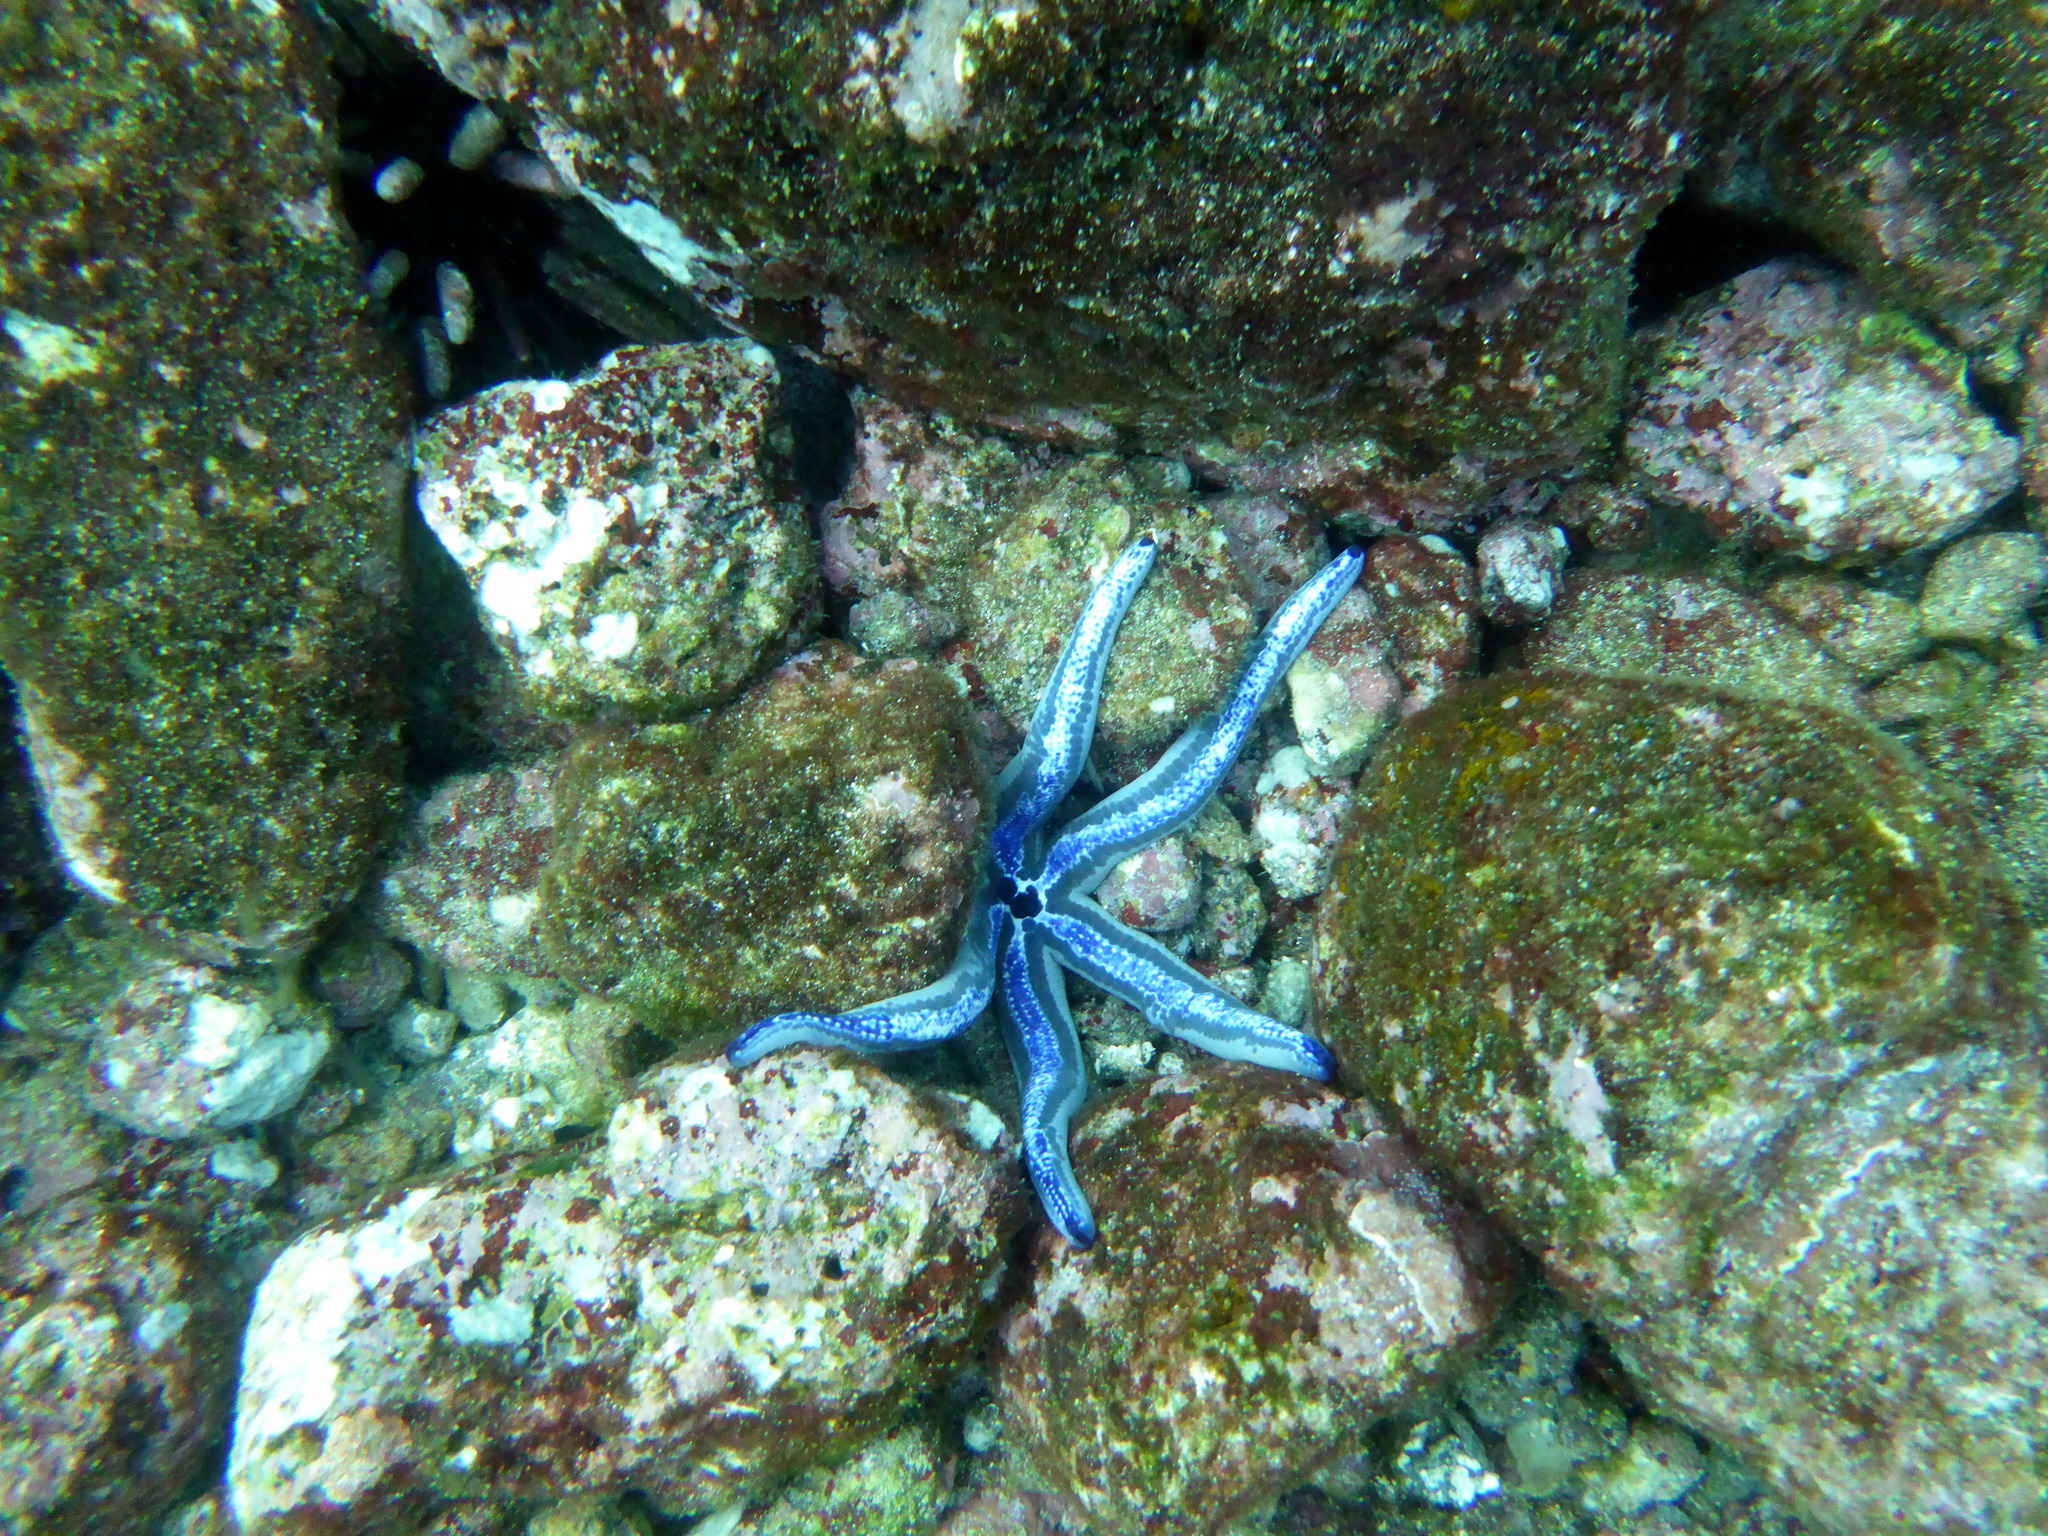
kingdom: Animalia
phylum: Echinodermata
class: Asteroidea
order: Valvatida
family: Ophidiasteridae
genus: Phataria
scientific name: Phataria unifascialis
